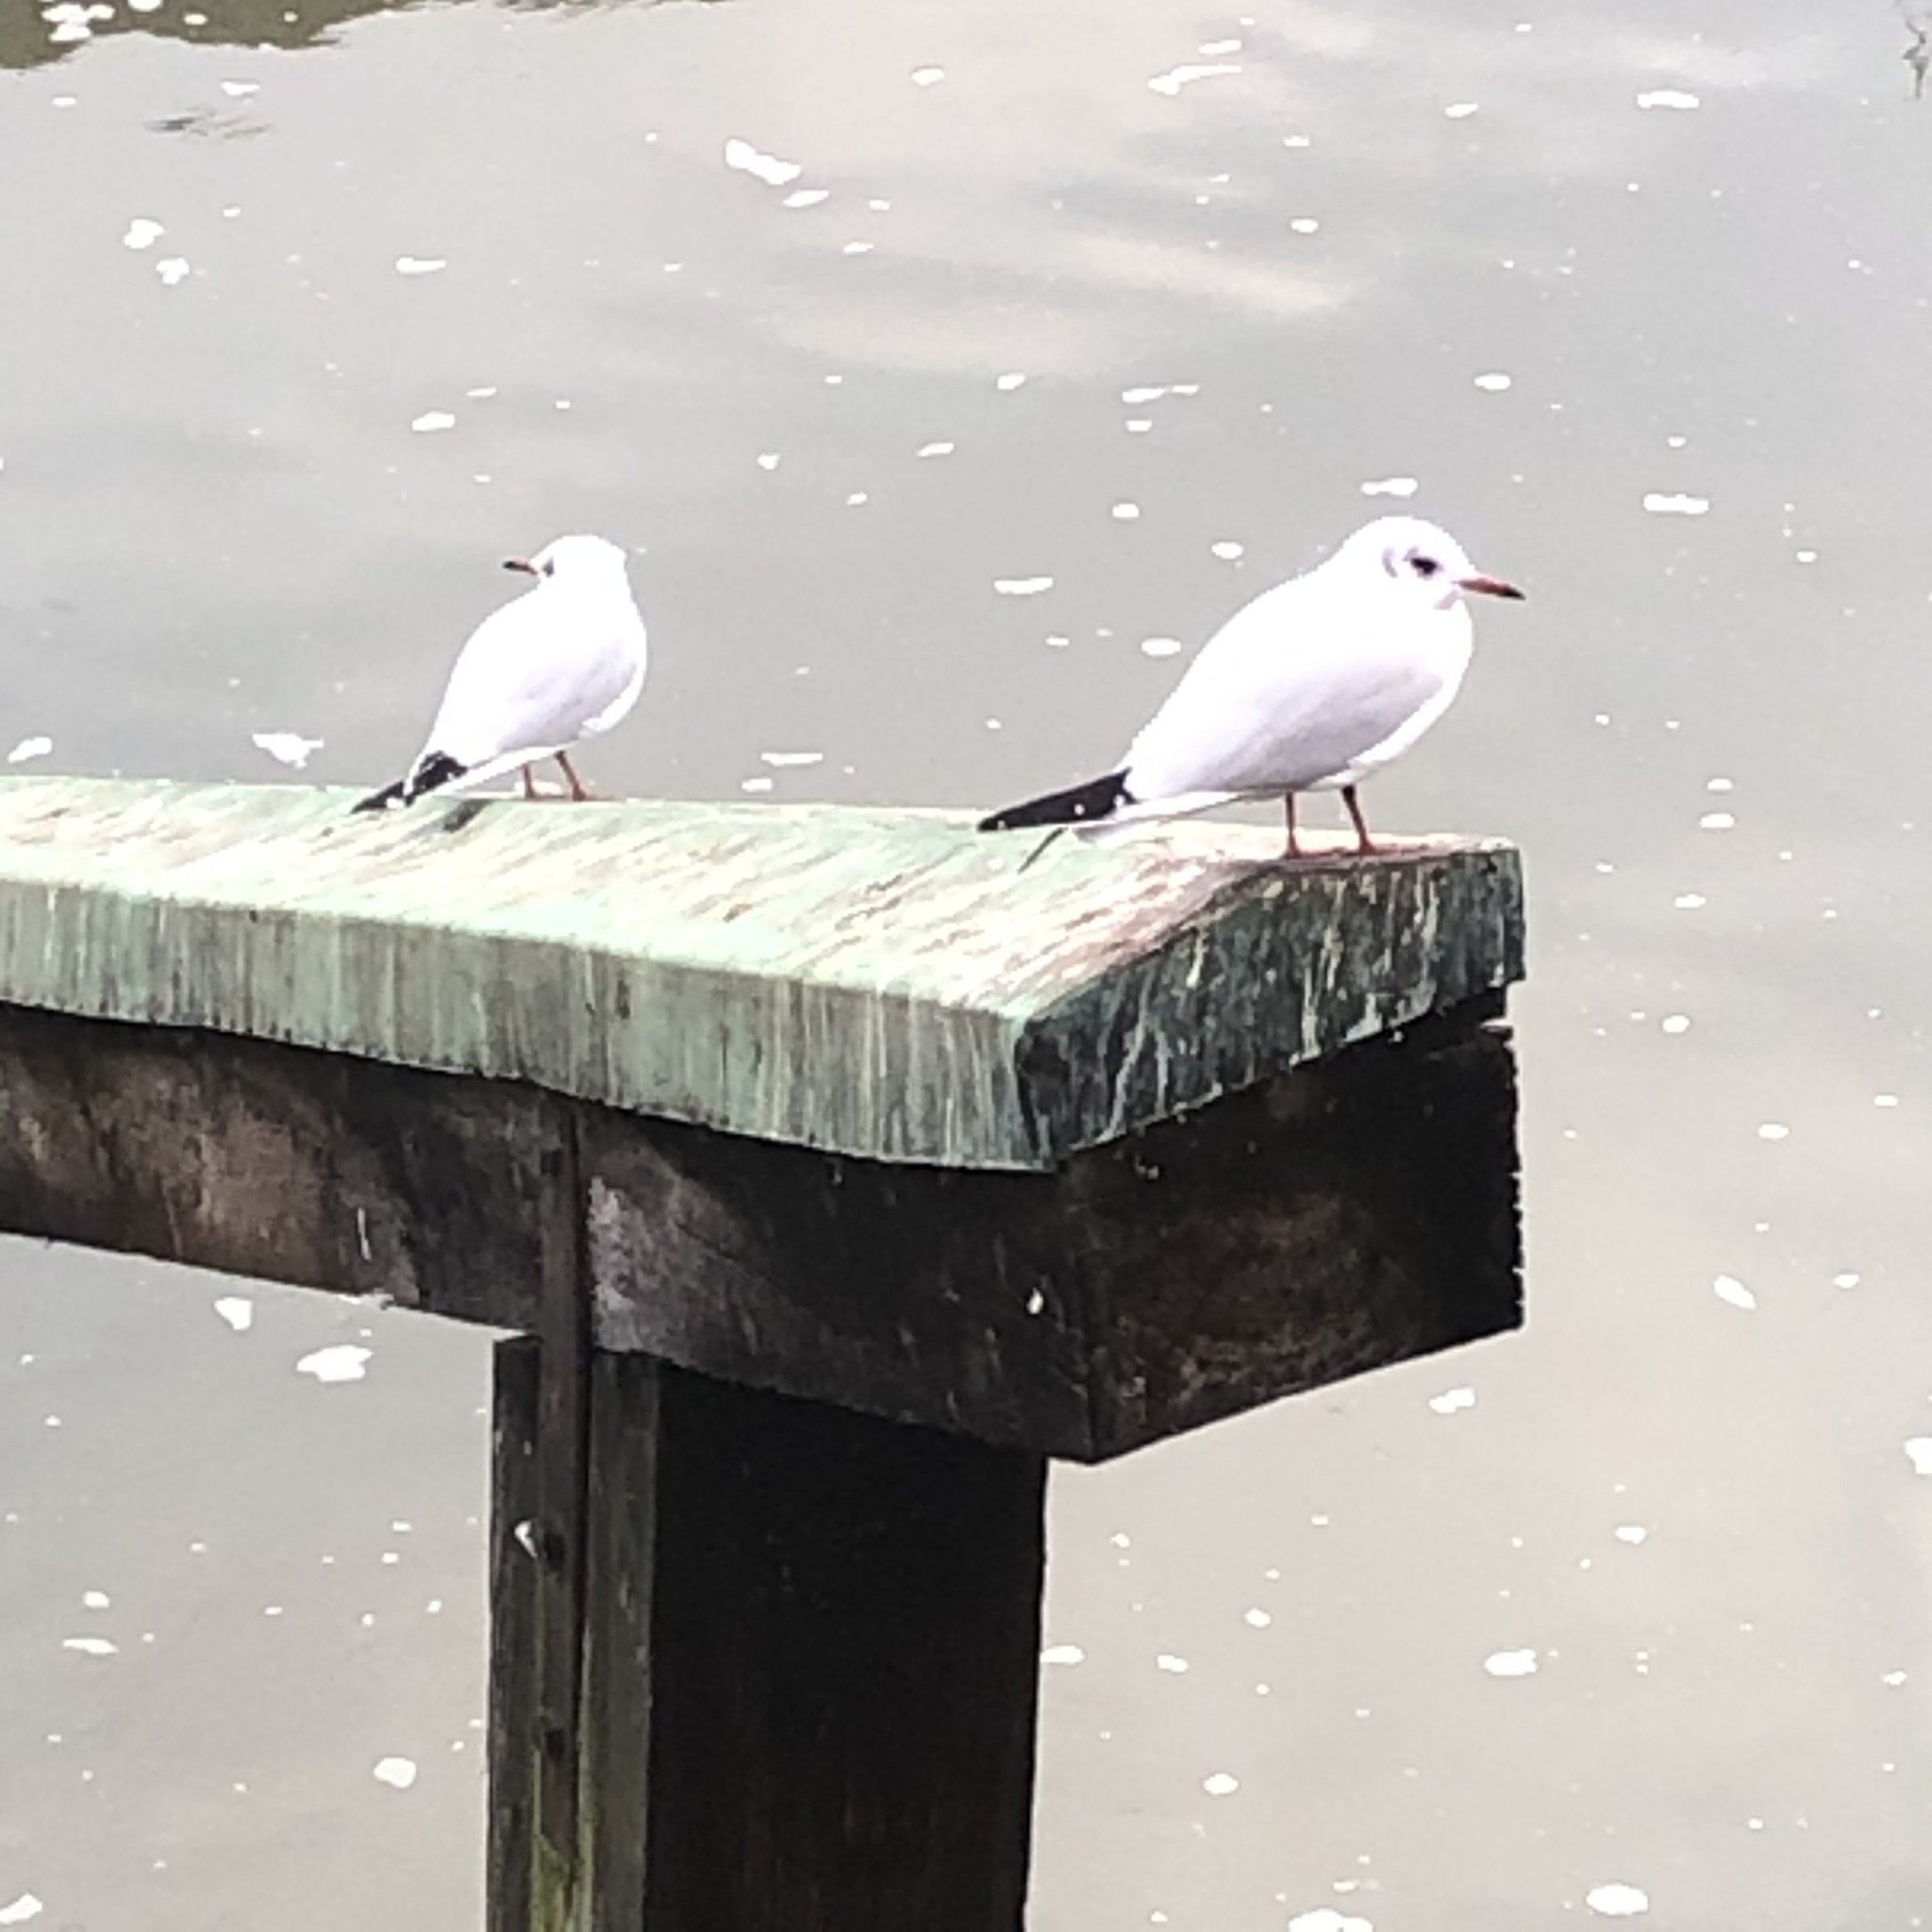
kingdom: Animalia
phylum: Chordata
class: Aves
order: Charadriiformes
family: Laridae
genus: Chroicocephalus
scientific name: Chroicocephalus ridibundus
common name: Black-headed gull
